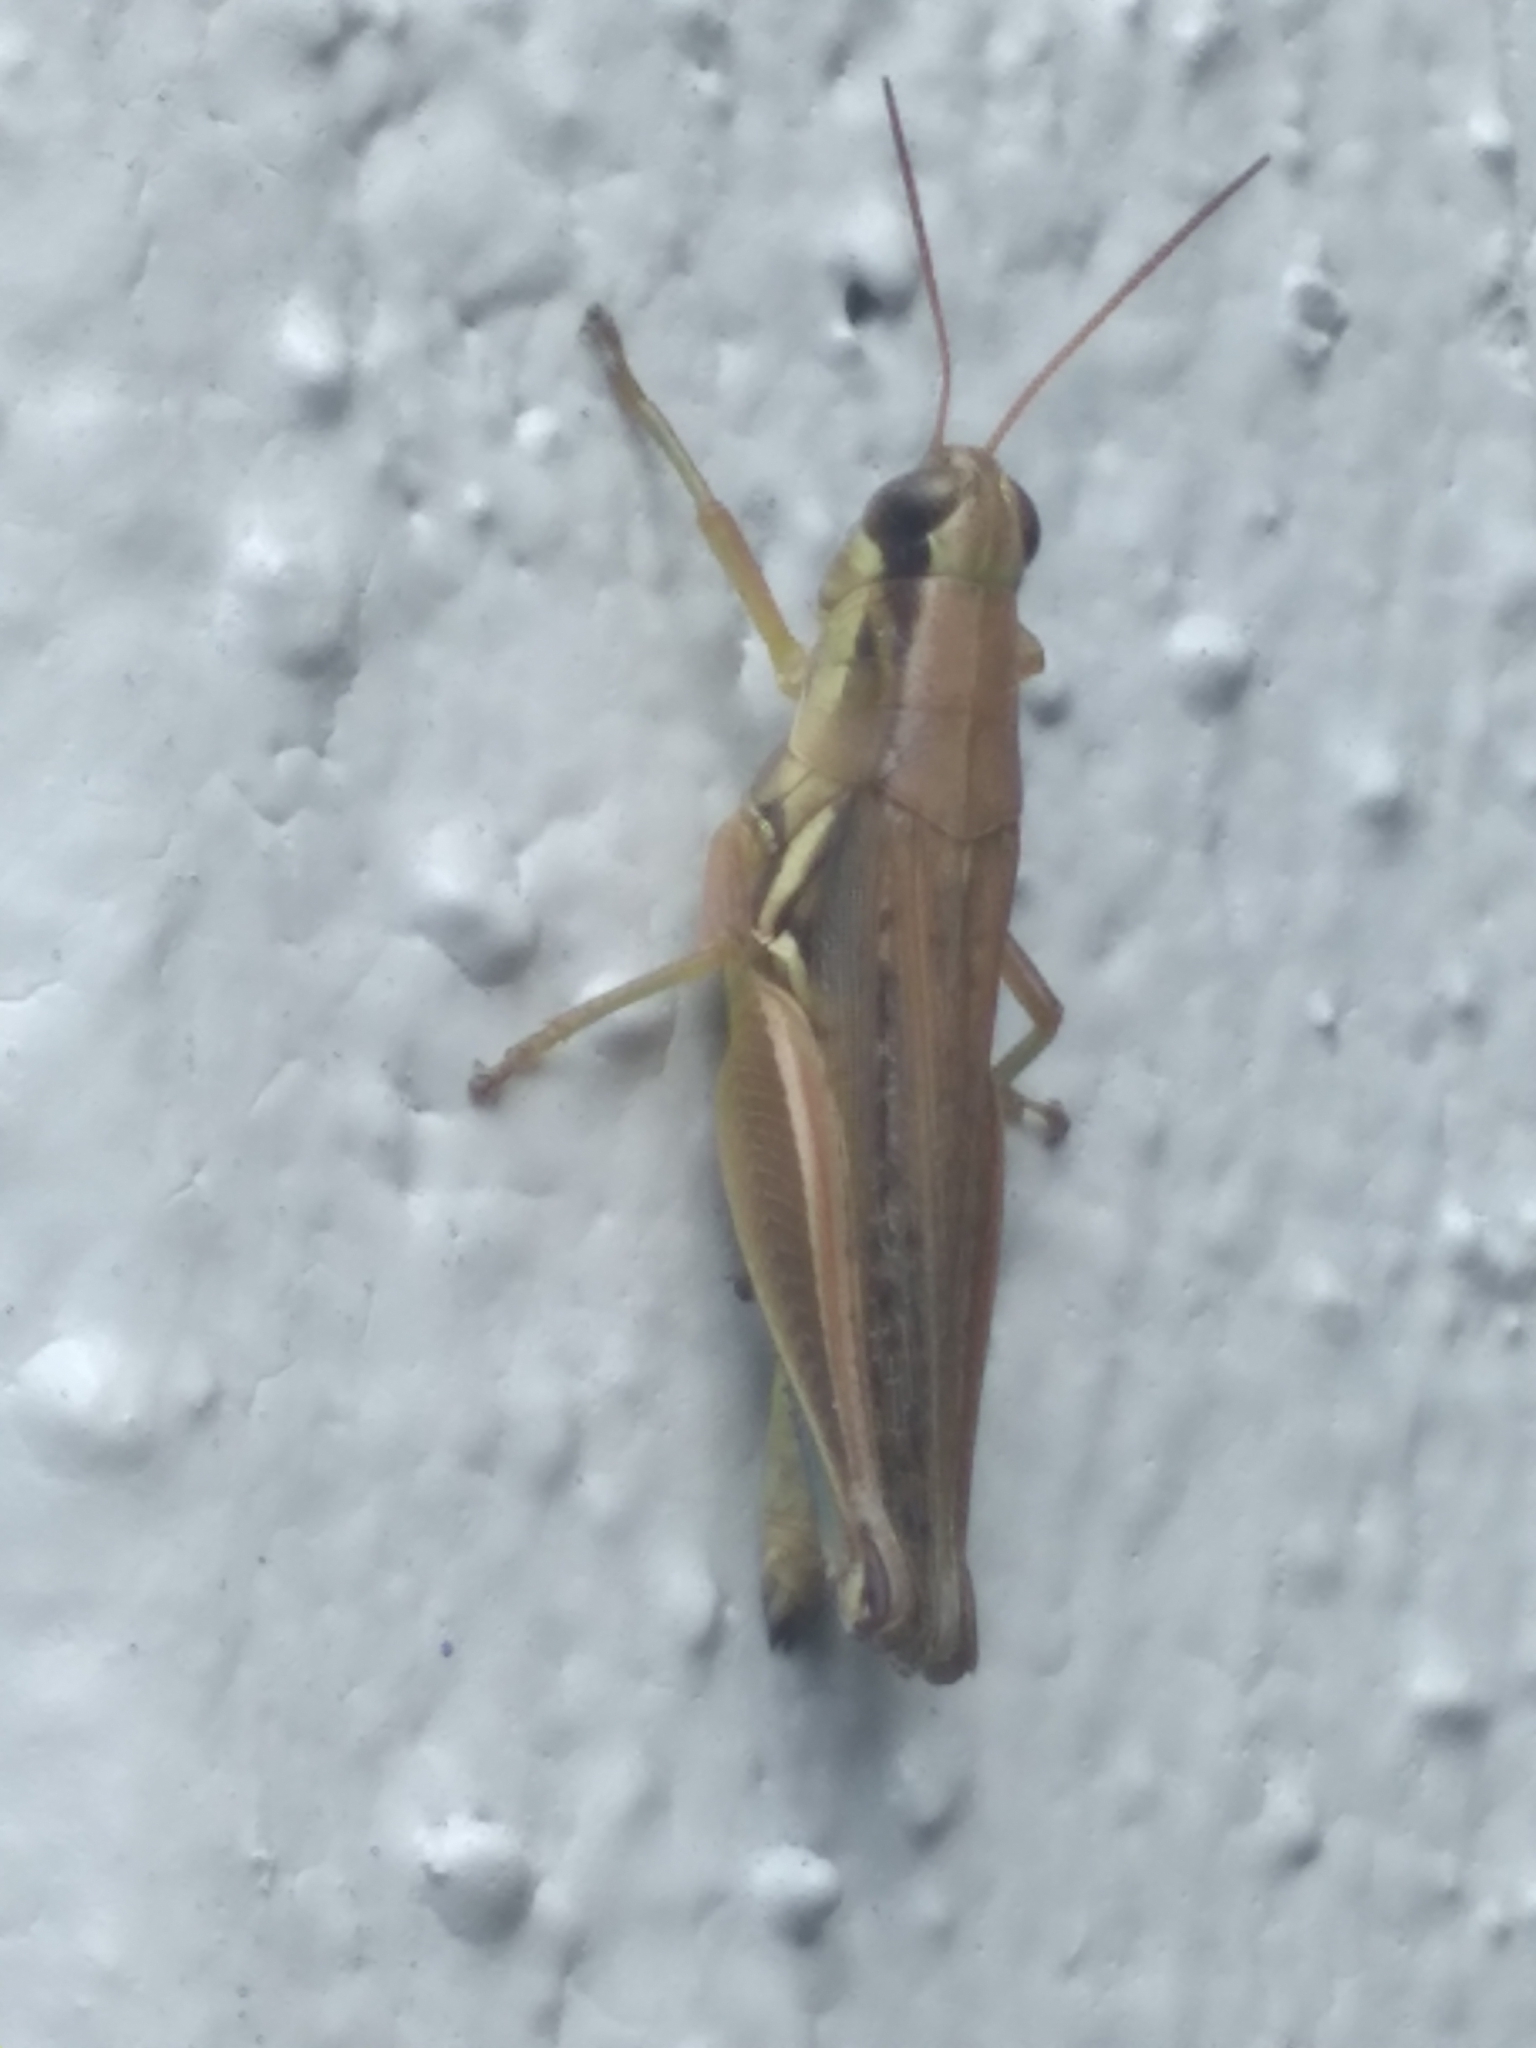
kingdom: Animalia
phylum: Arthropoda
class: Insecta
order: Orthoptera
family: Acrididae
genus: Paroxya
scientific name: Paroxya atlantica
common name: Atlantic grasshopper
